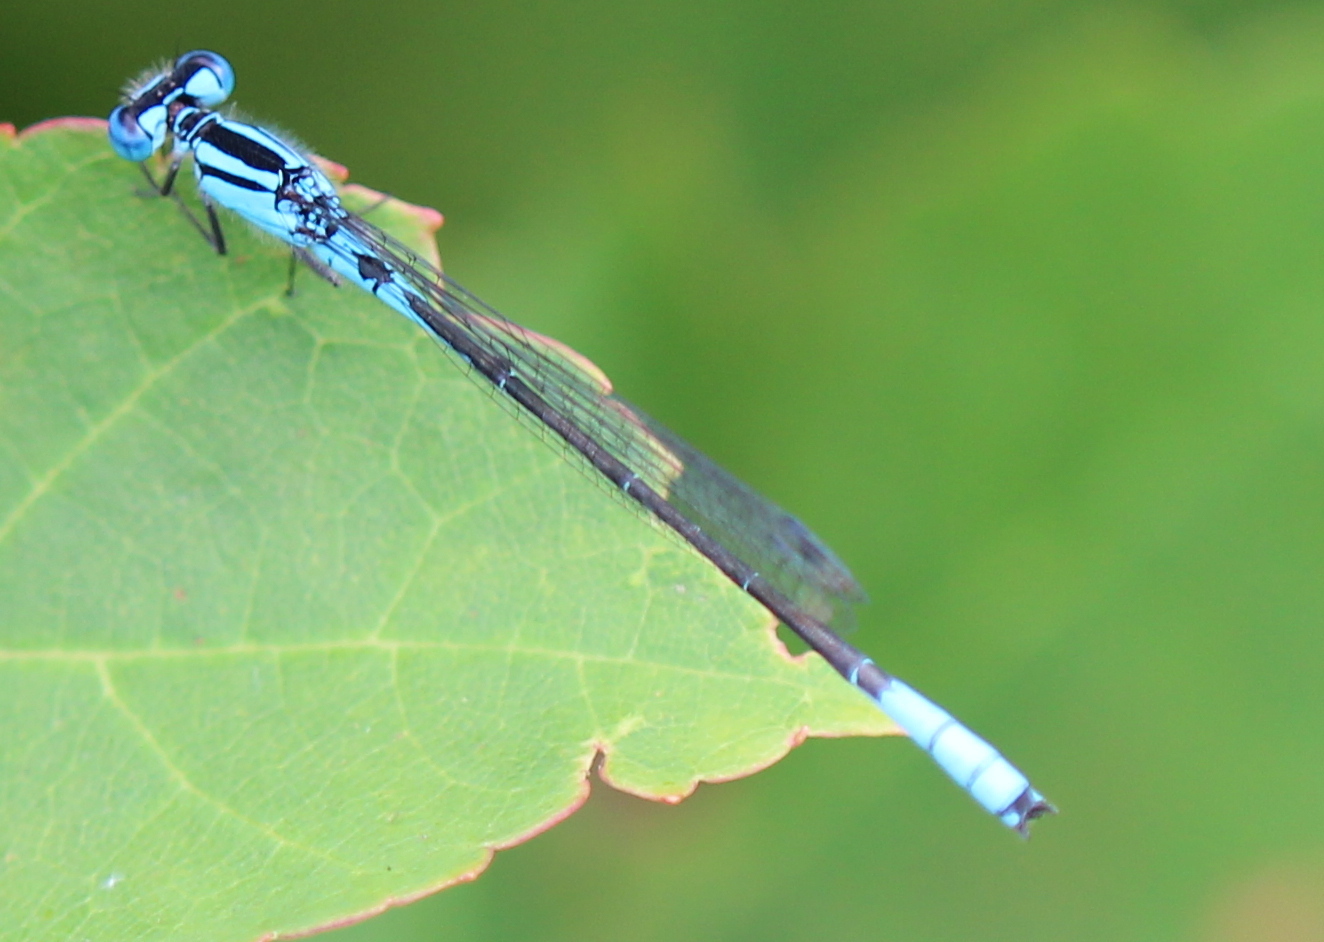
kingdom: Animalia
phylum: Arthropoda
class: Insecta
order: Odonata
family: Coenagrionidae
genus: Enallagma
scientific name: Enallagma aspersum
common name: Azure bluet
